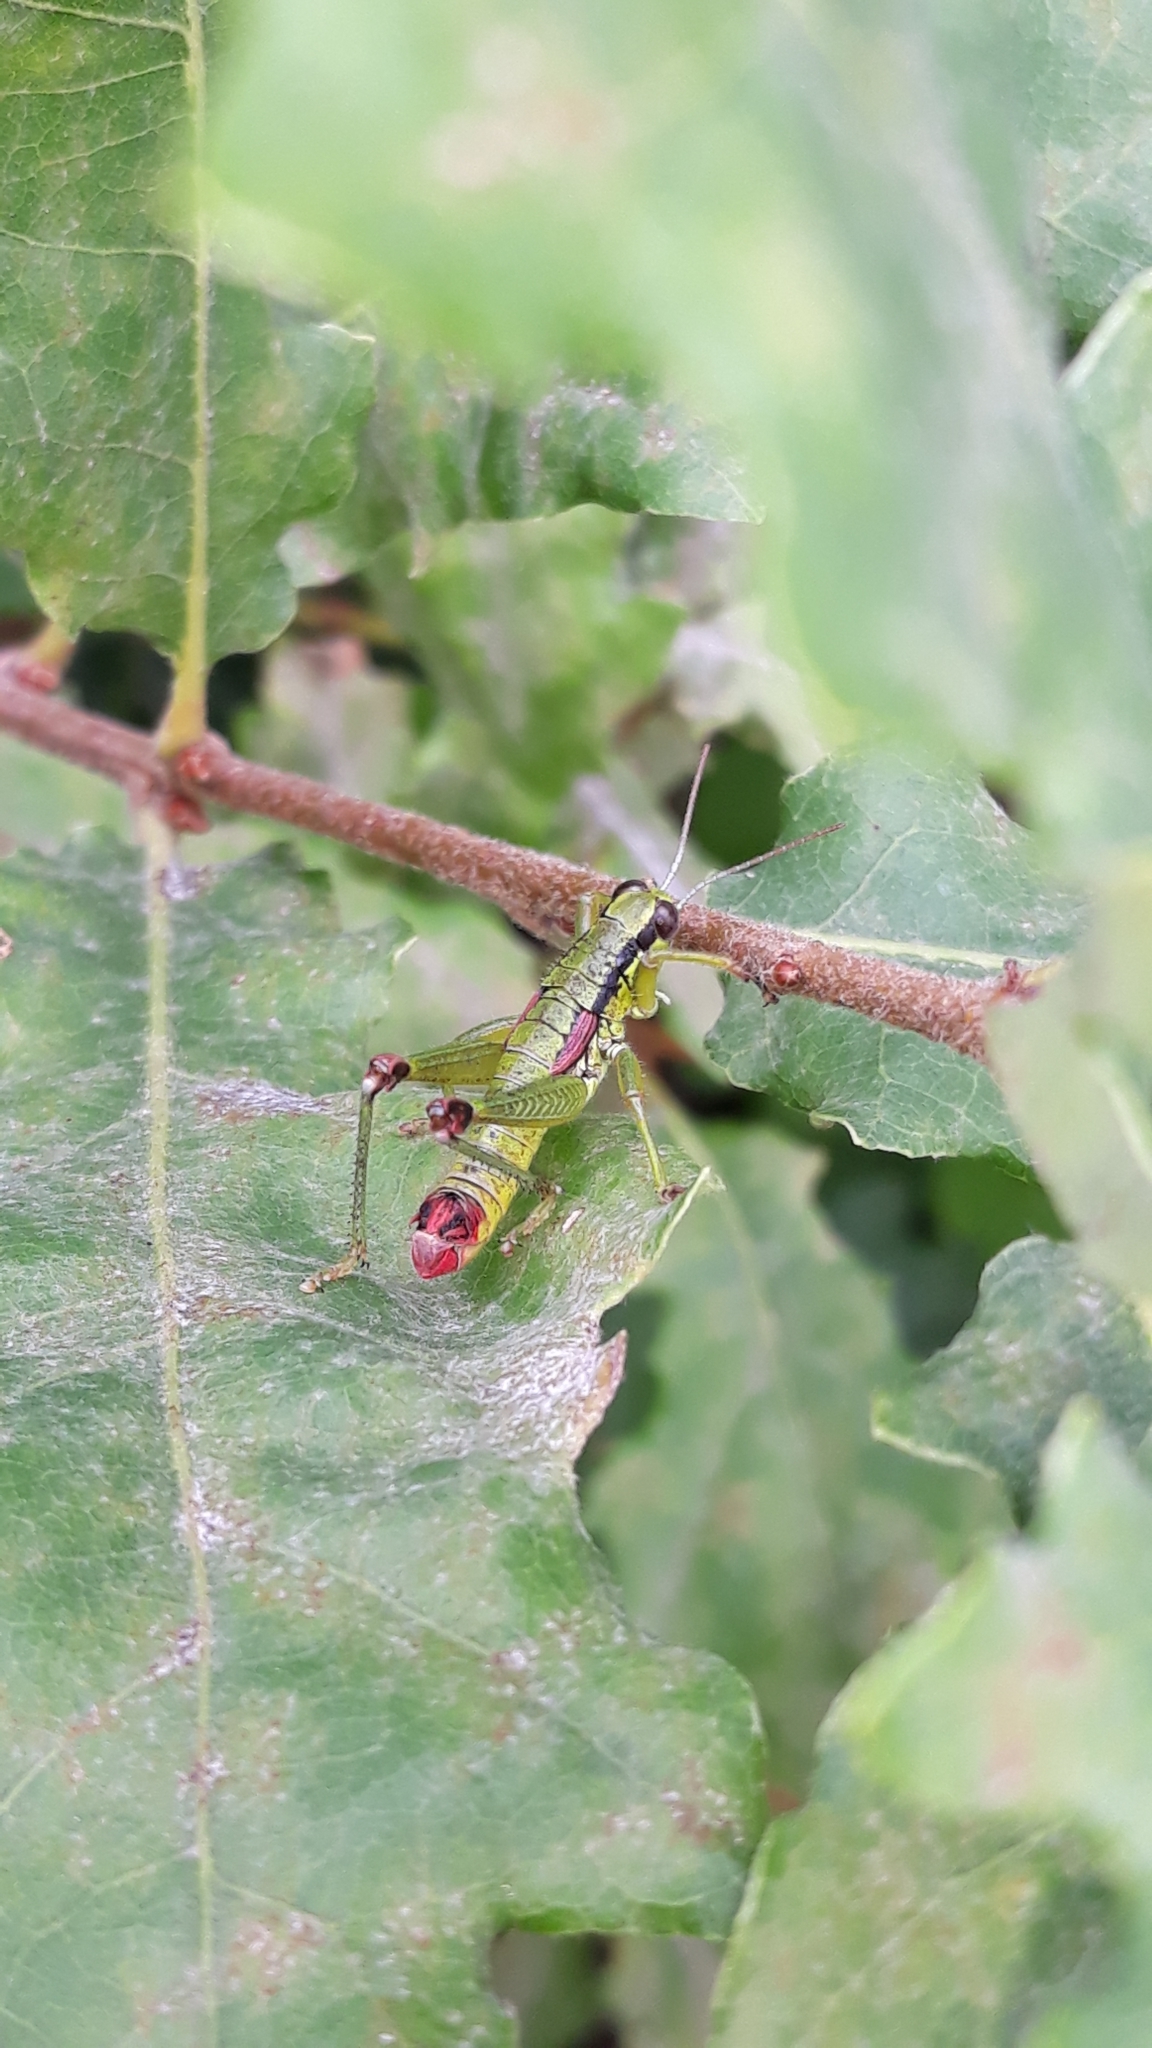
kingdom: Animalia
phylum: Arthropoda
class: Insecta
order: Orthoptera
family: Acrididae
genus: Odontopodisma
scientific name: Odontopodisma decipiens
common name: Cheating mountain grasshopper
